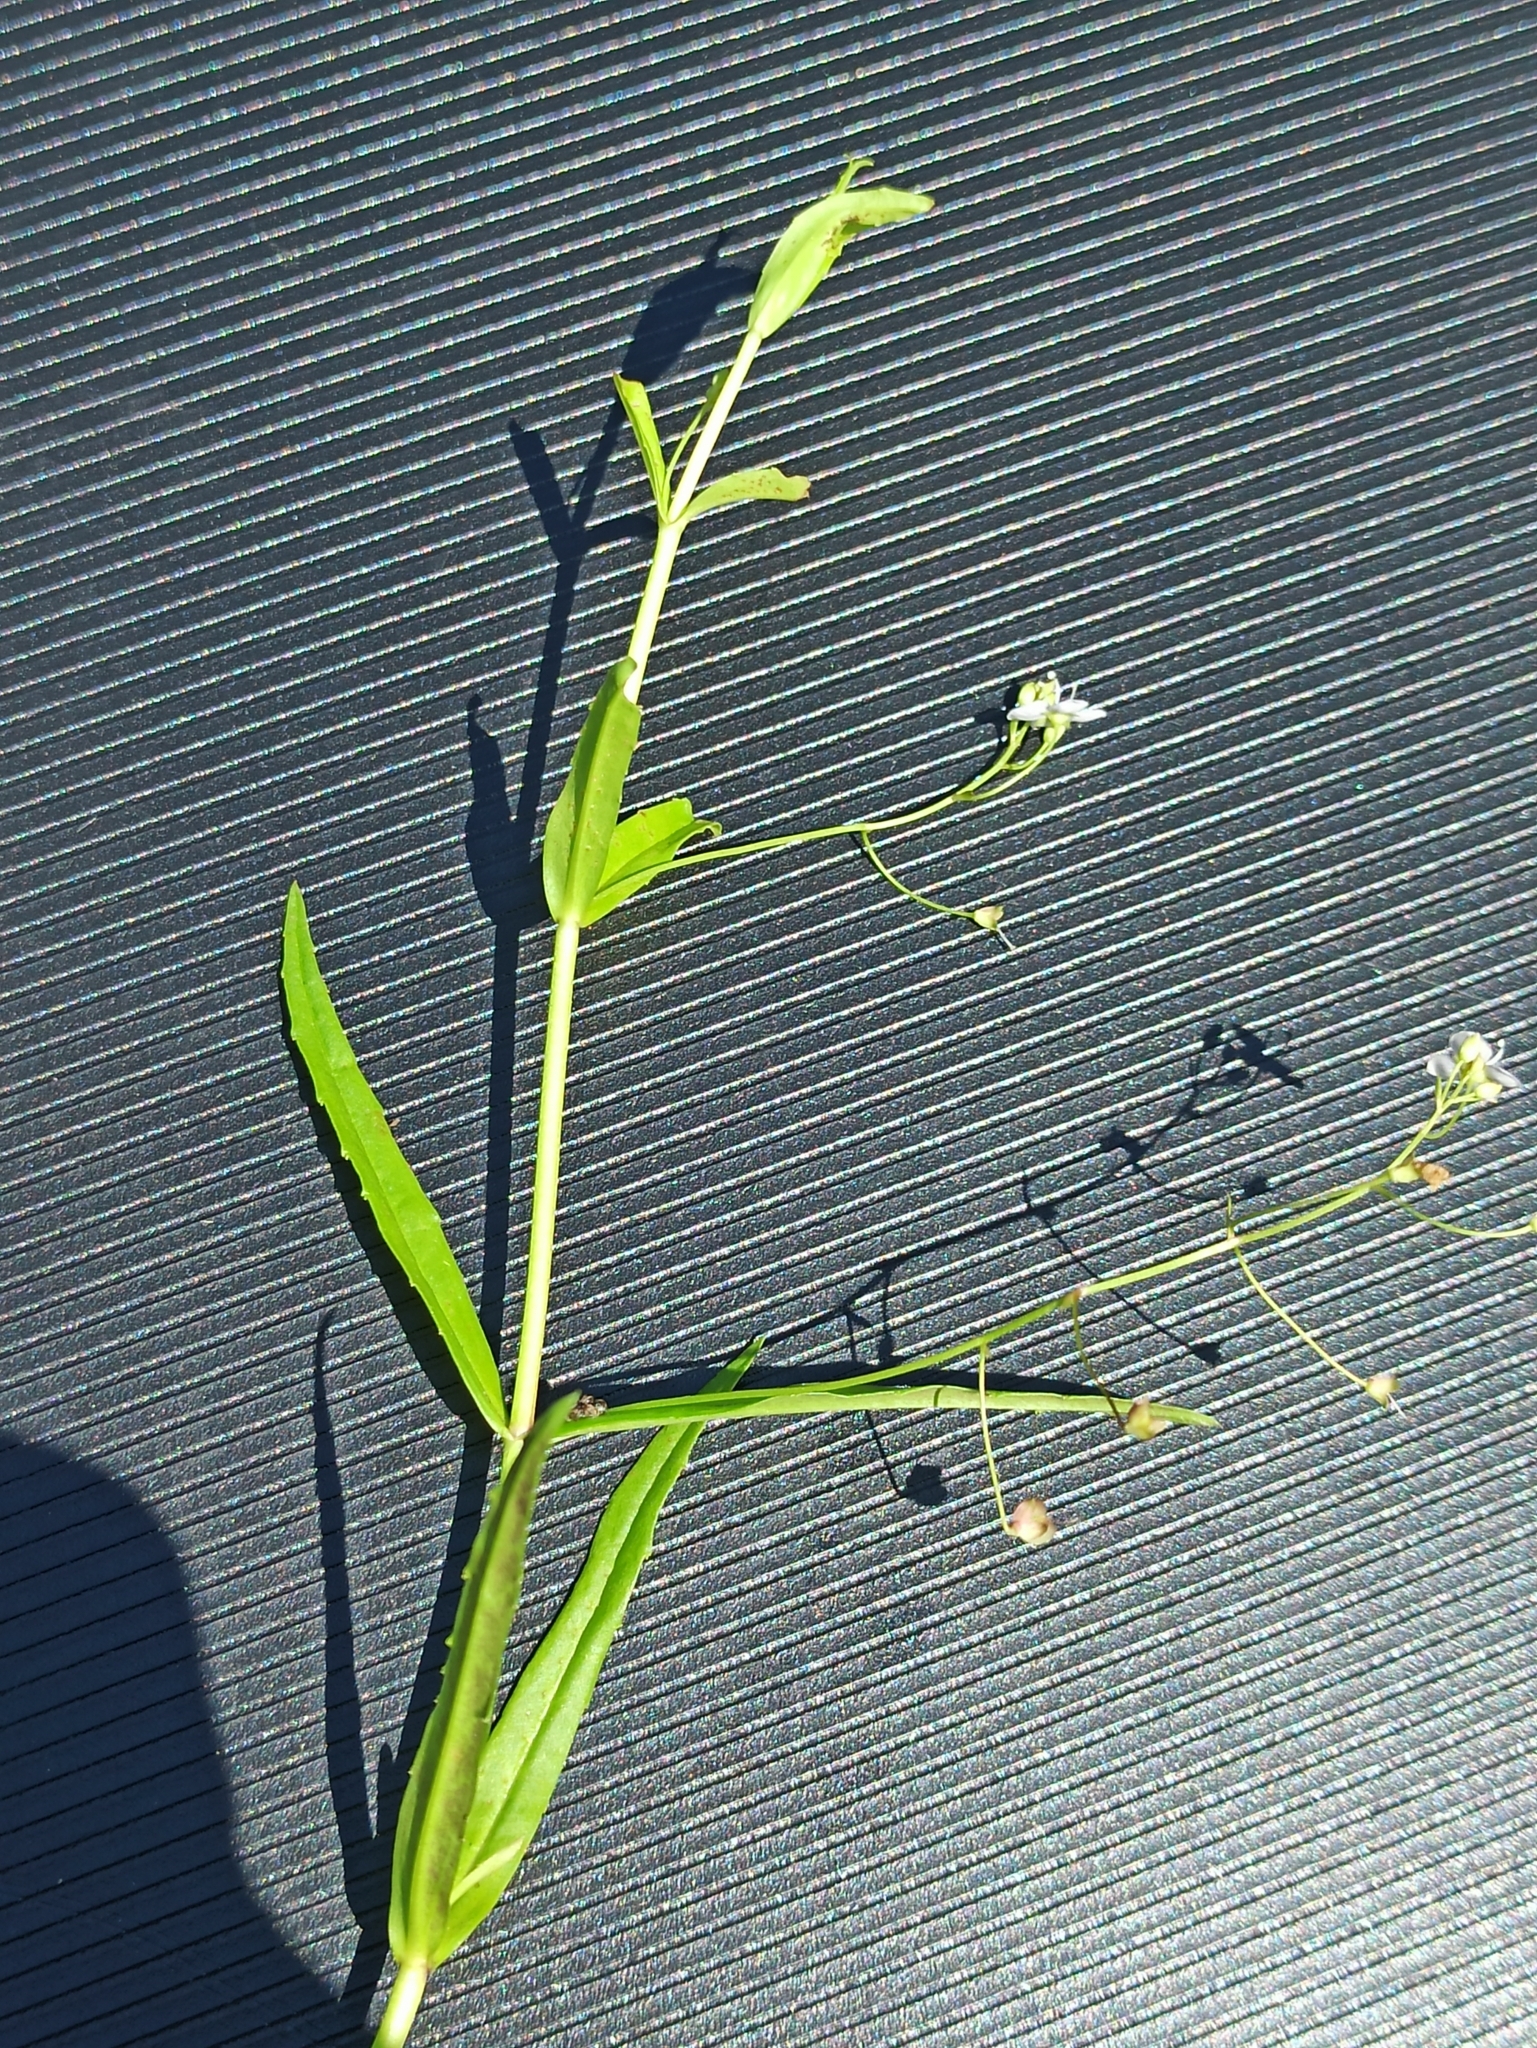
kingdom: Plantae
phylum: Tracheophyta
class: Magnoliopsida
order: Lamiales
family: Plantaginaceae
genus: Veronica
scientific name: Veronica scutellata
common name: Marsh speedwell
